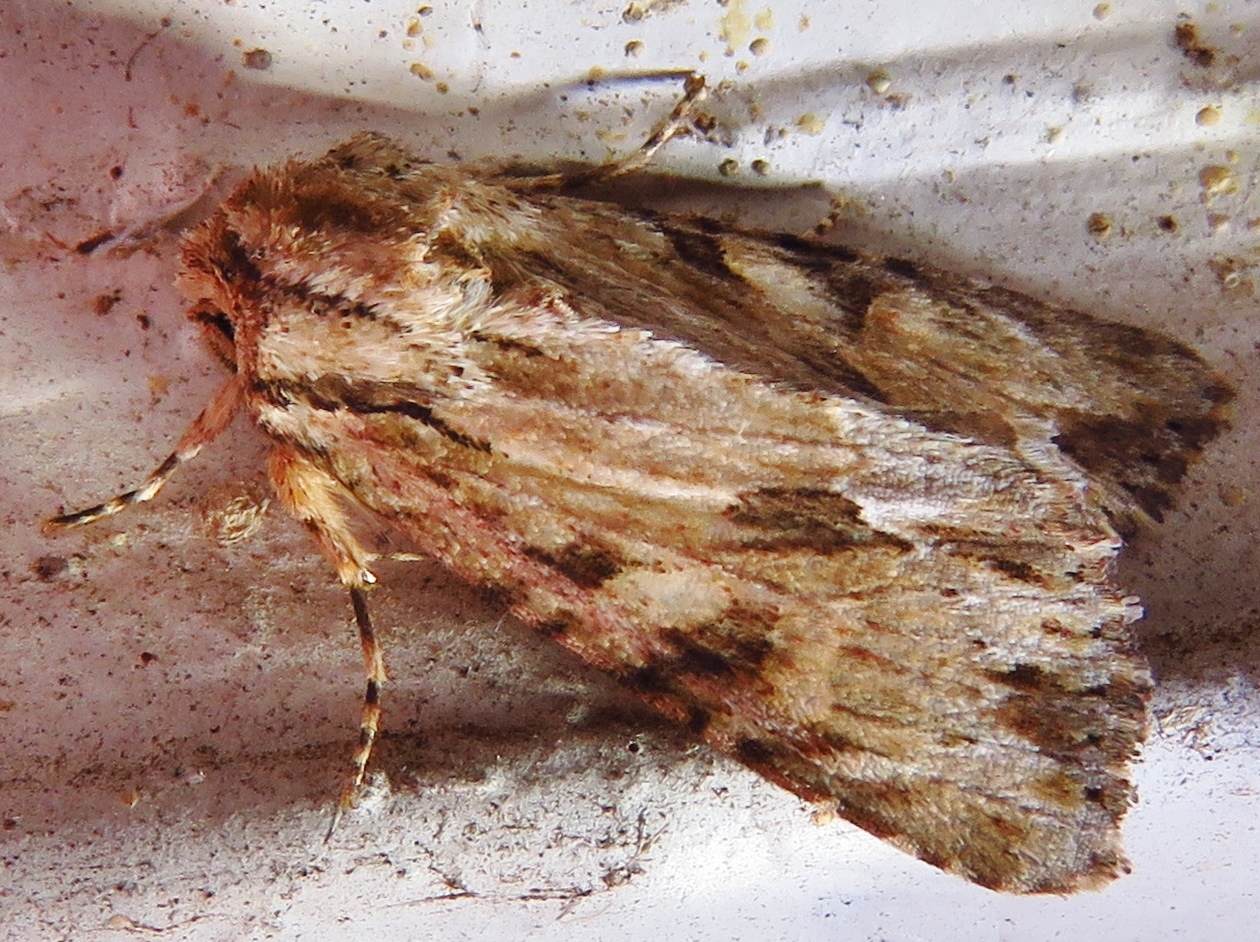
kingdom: Animalia
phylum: Arthropoda
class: Insecta
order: Lepidoptera
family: Noctuidae
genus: Achatia
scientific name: Achatia mucens
